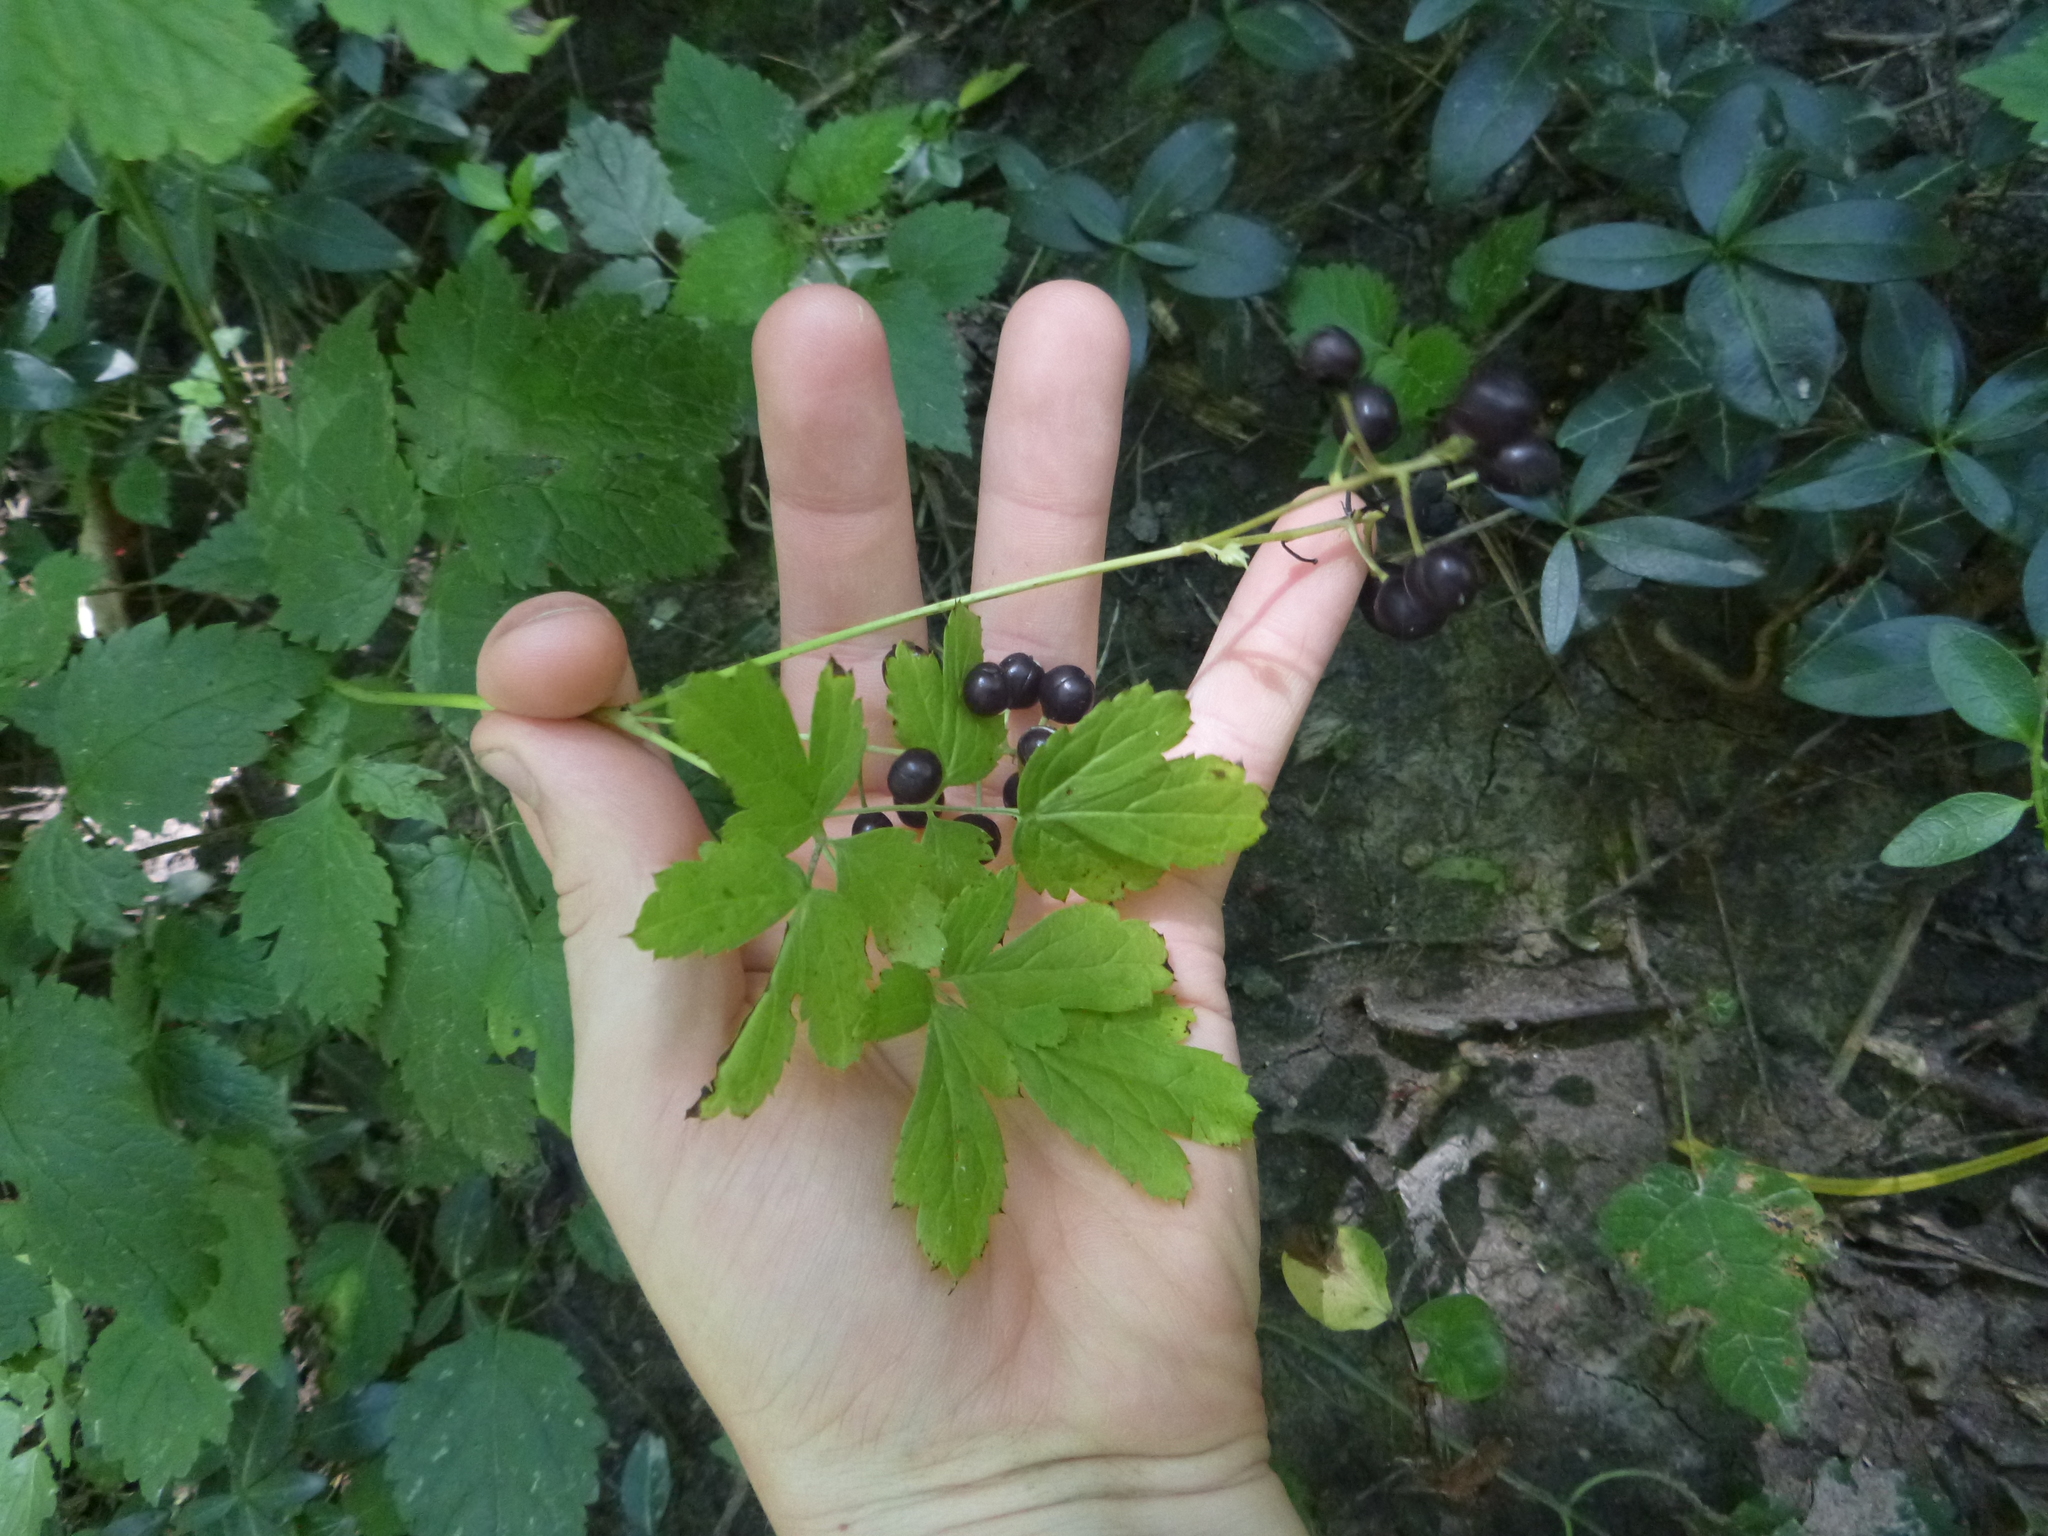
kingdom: Plantae
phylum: Tracheophyta
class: Magnoliopsida
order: Ranunculales
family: Ranunculaceae
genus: Actaea
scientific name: Actaea spicata
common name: Baneberry
